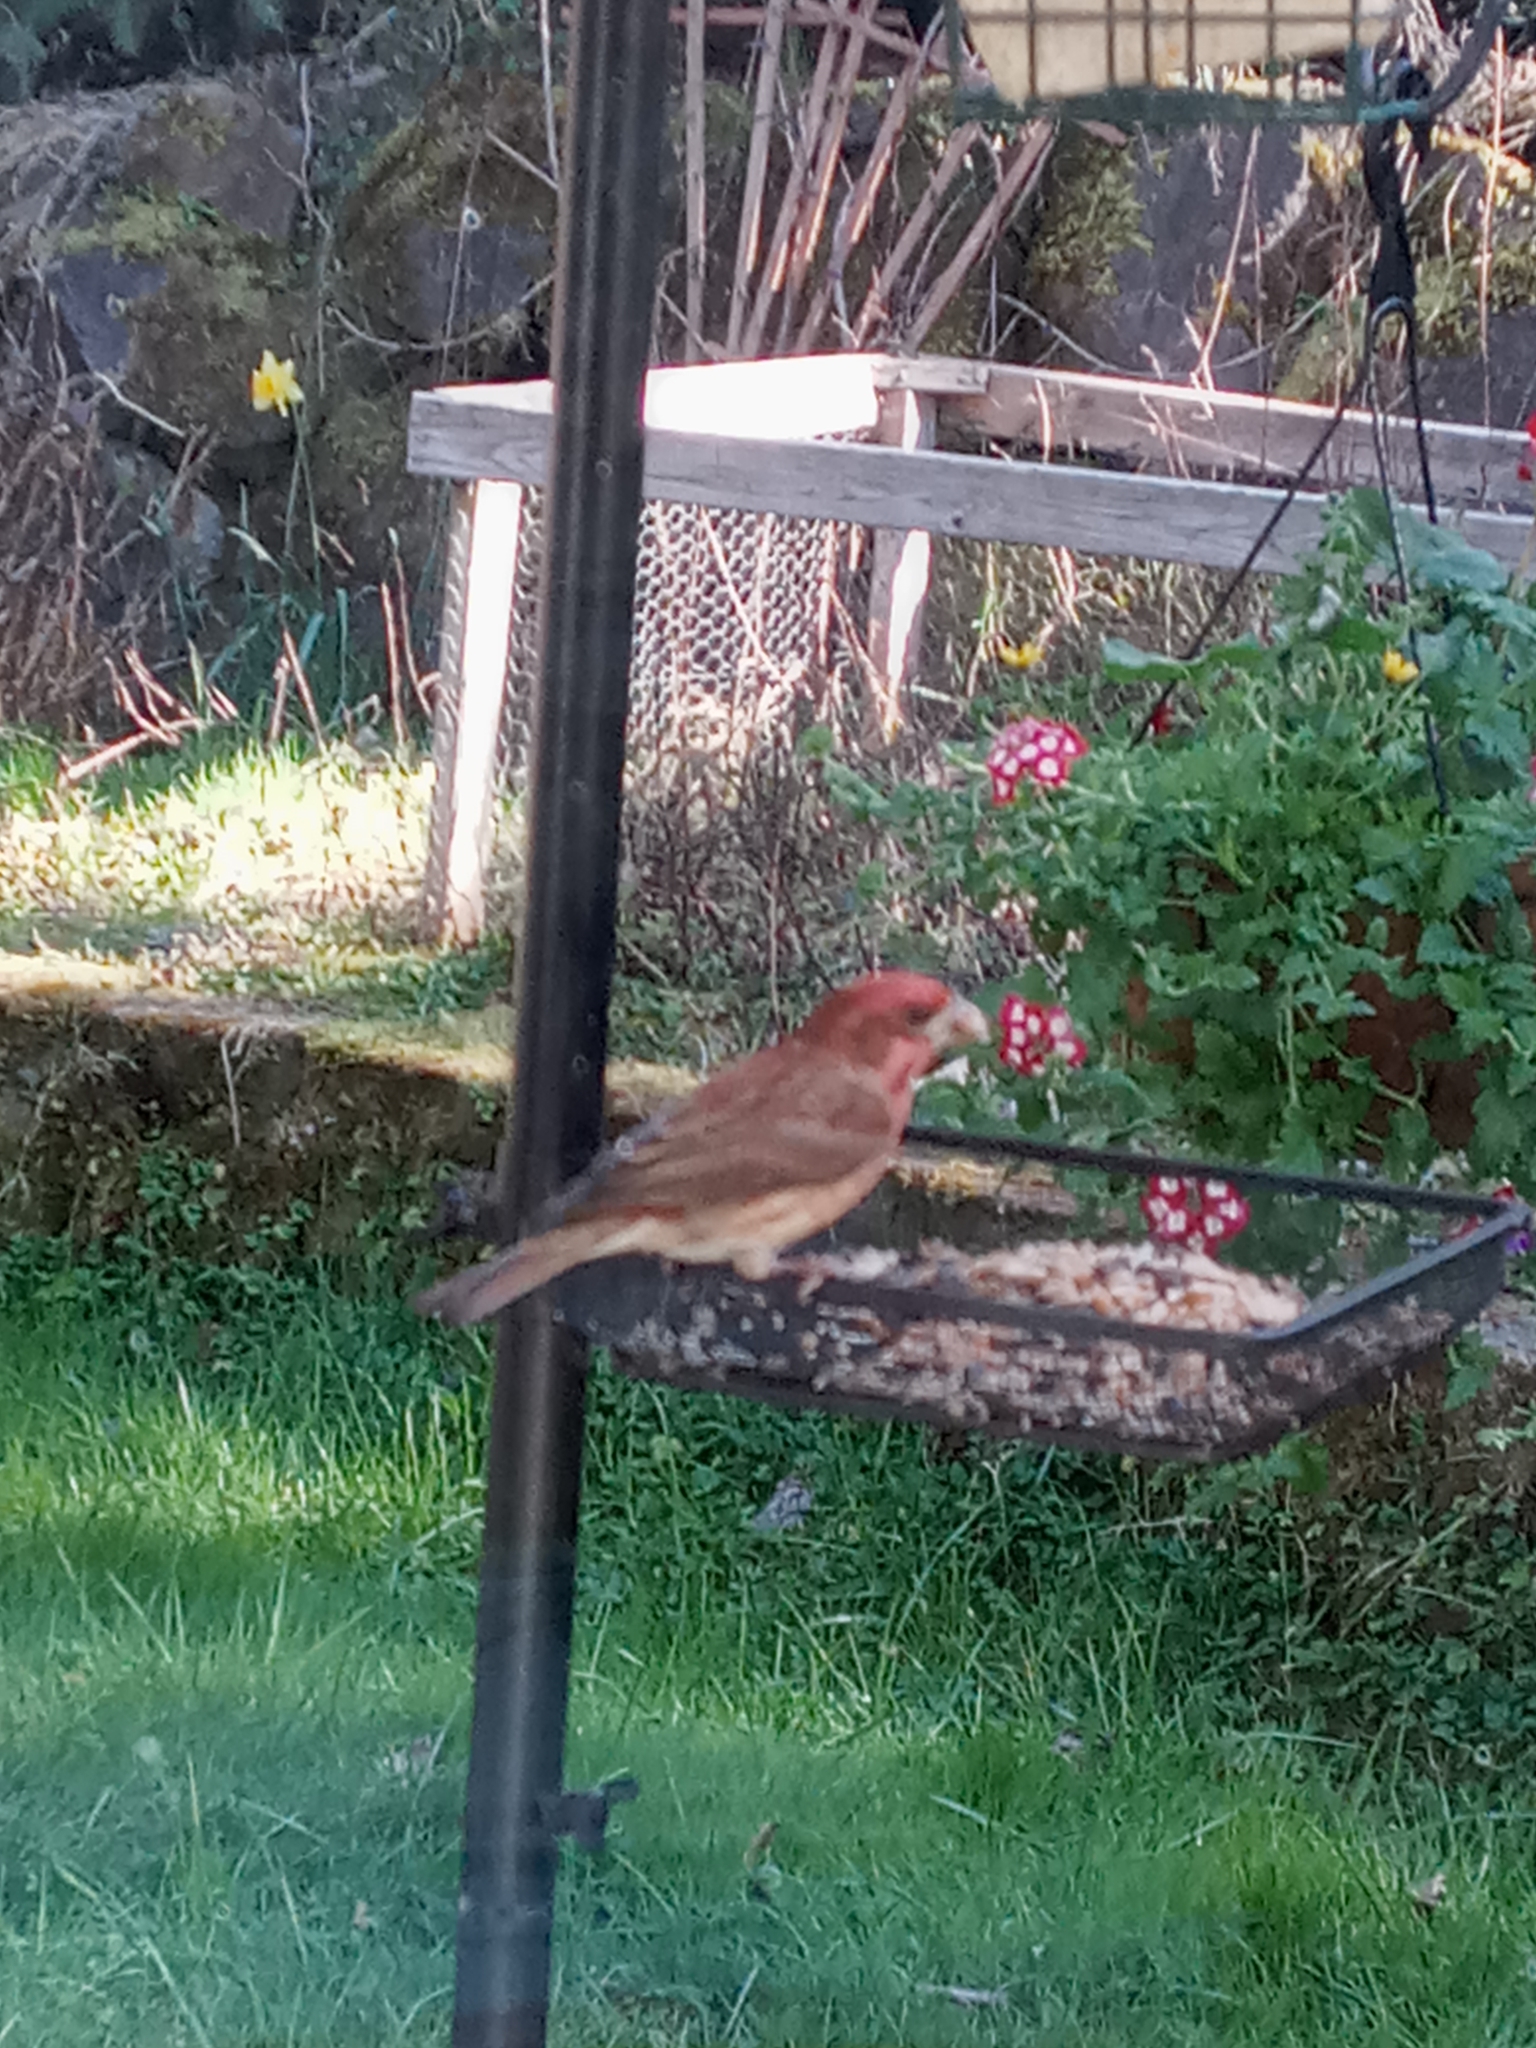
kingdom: Animalia
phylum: Chordata
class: Aves
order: Passeriformes
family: Fringillidae
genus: Haemorhous
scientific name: Haemorhous mexicanus
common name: House finch
